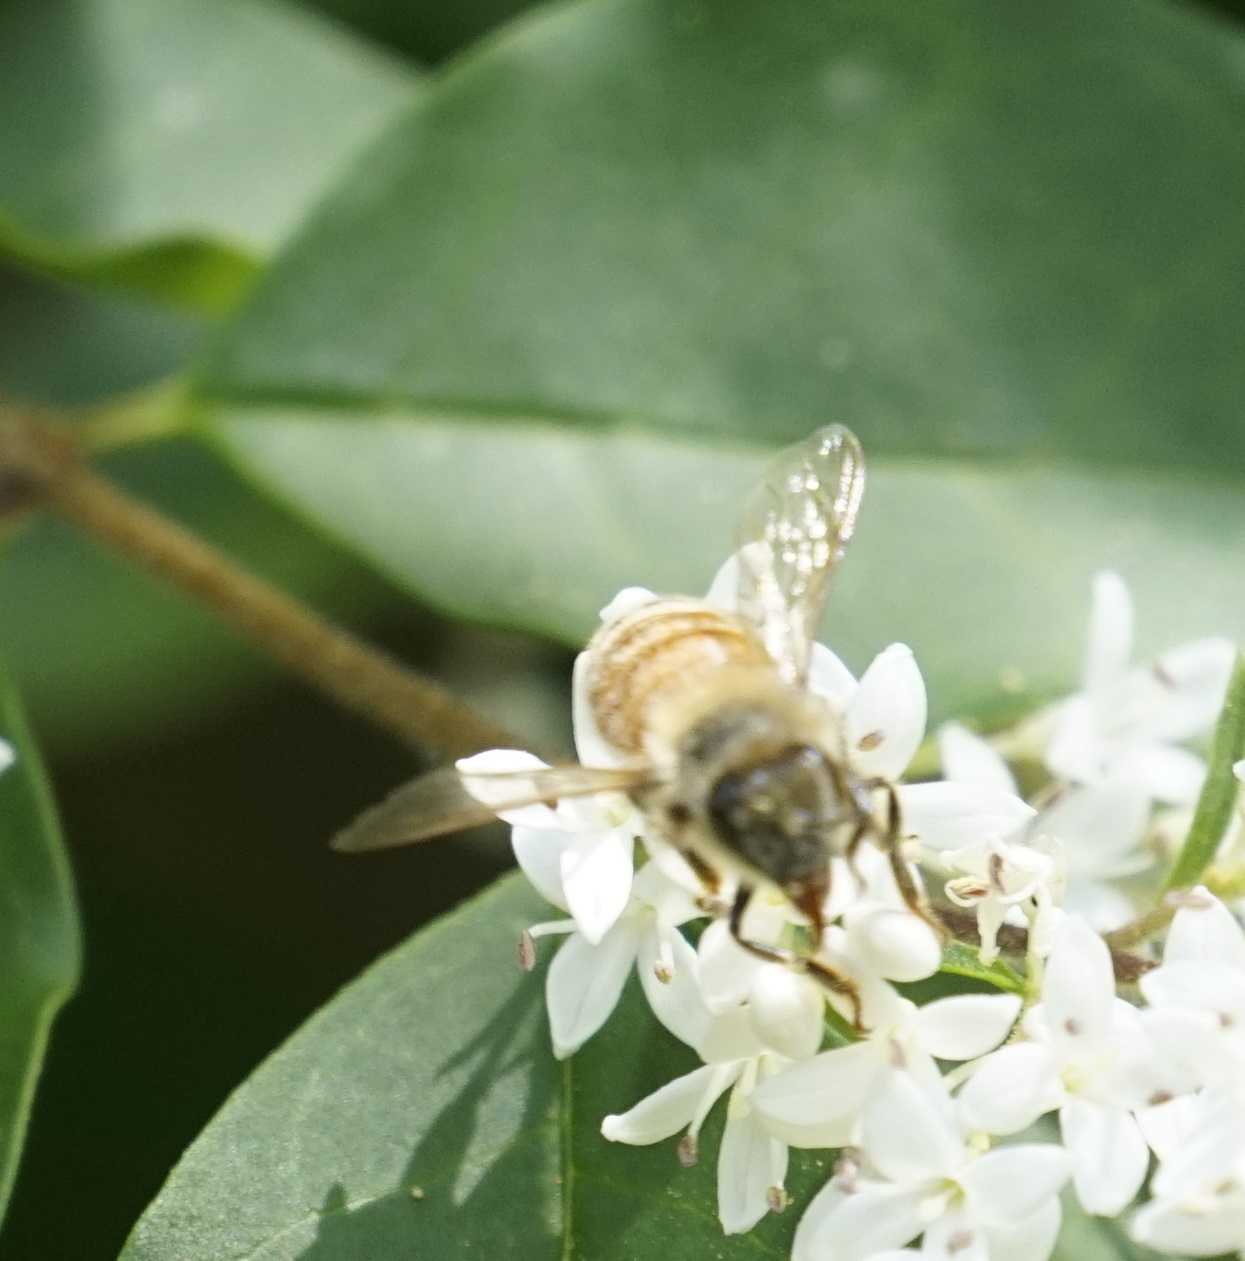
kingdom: Animalia
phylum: Arthropoda
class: Insecta
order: Hymenoptera
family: Apidae
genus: Apis
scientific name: Apis mellifera
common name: Honey bee
